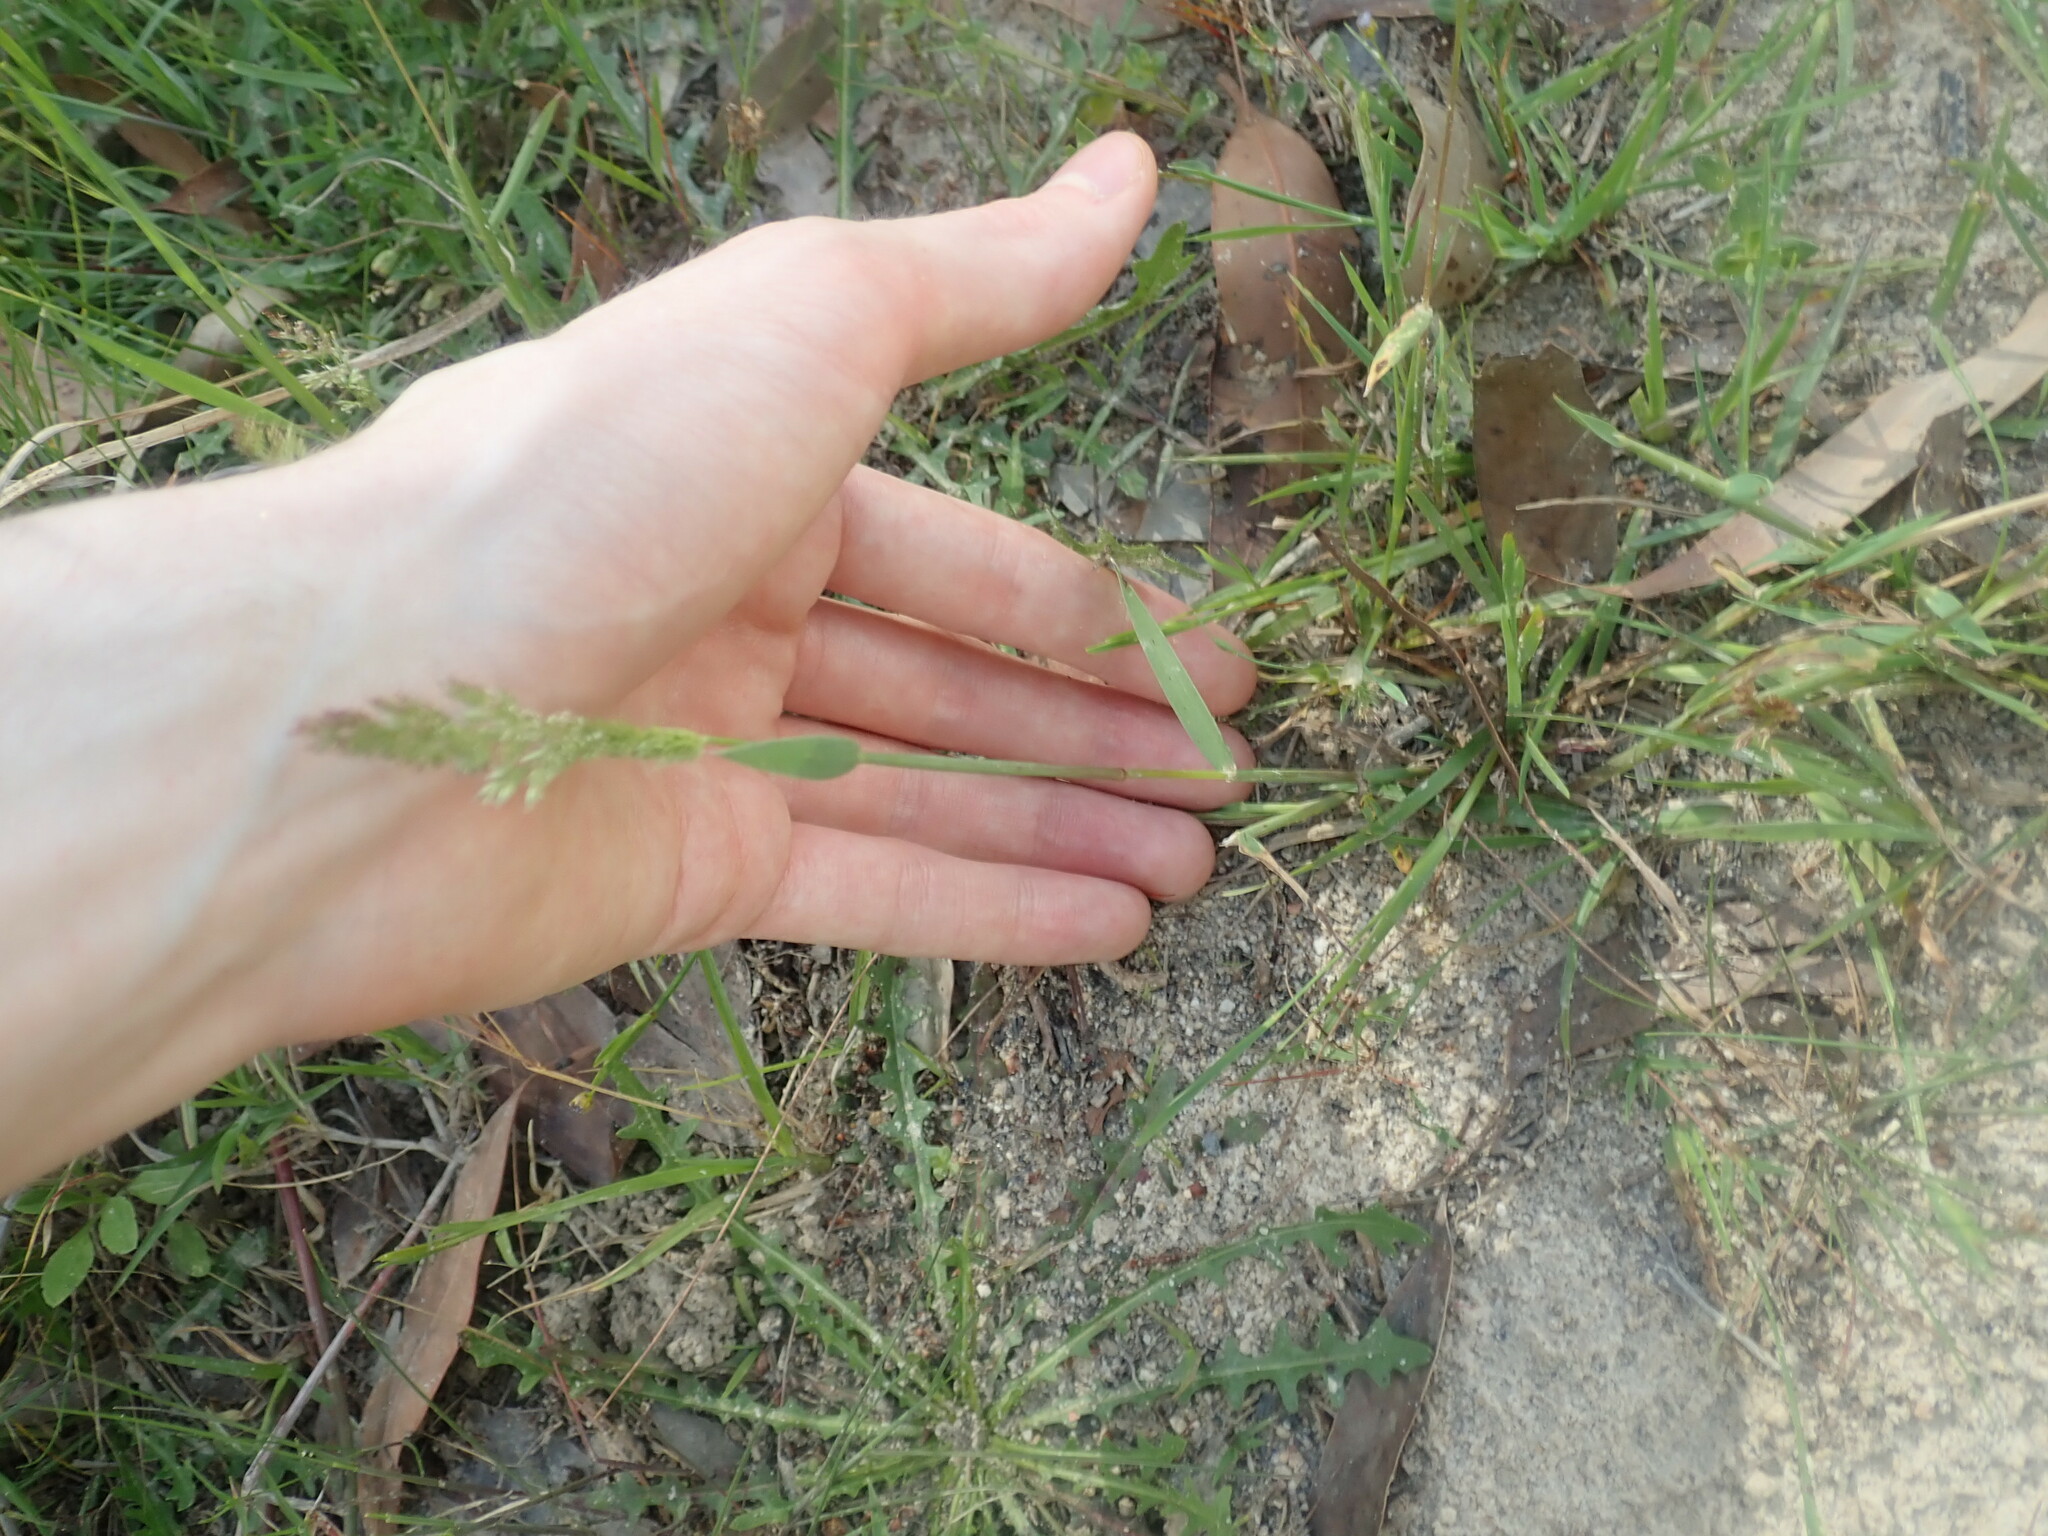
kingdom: Plantae
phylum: Tracheophyta
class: Liliopsida
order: Poales
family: Poaceae
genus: Agropogon
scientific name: Agropogon lutosus
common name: Coast agropogon
